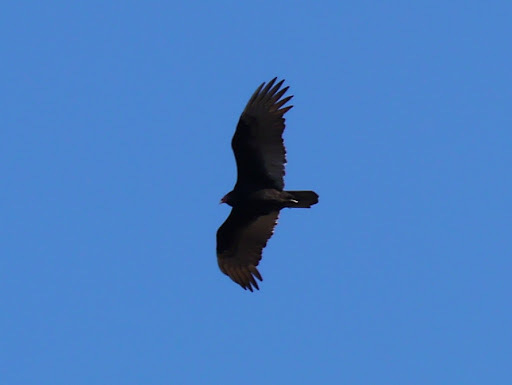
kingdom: Animalia
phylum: Chordata
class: Aves
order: Accipitriformes
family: Cathartidae
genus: Cathartes
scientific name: Cathartes aura
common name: Turkey vulture
